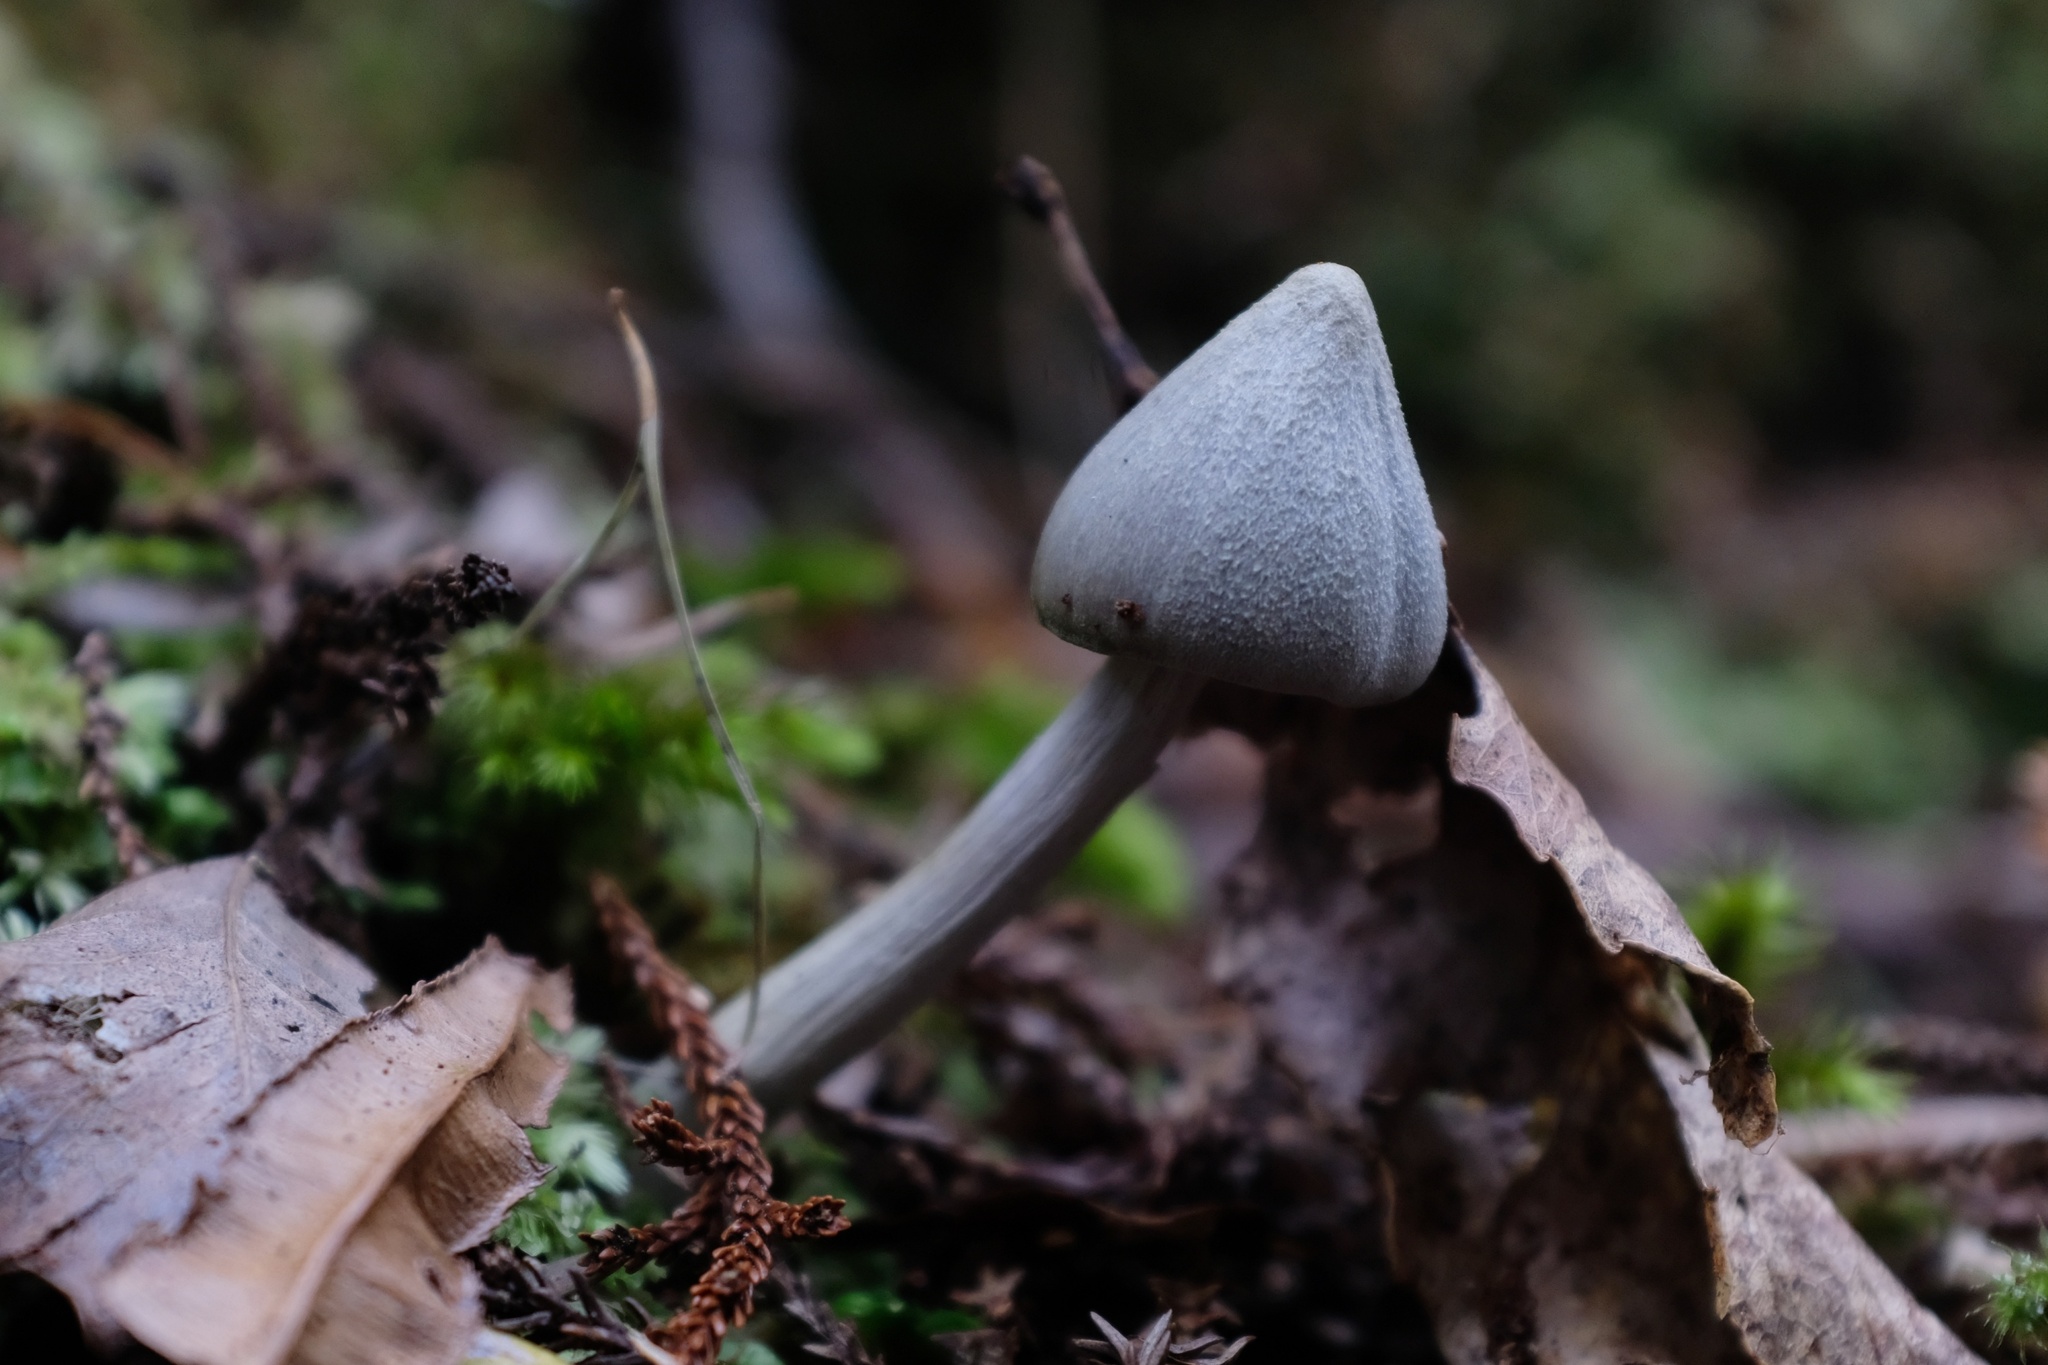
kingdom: Fungi
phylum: Basidiomycota
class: Agaricomycetes
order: Agaricales
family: Entolomataceae
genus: Entoloma
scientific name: Entoloma canoconicum
